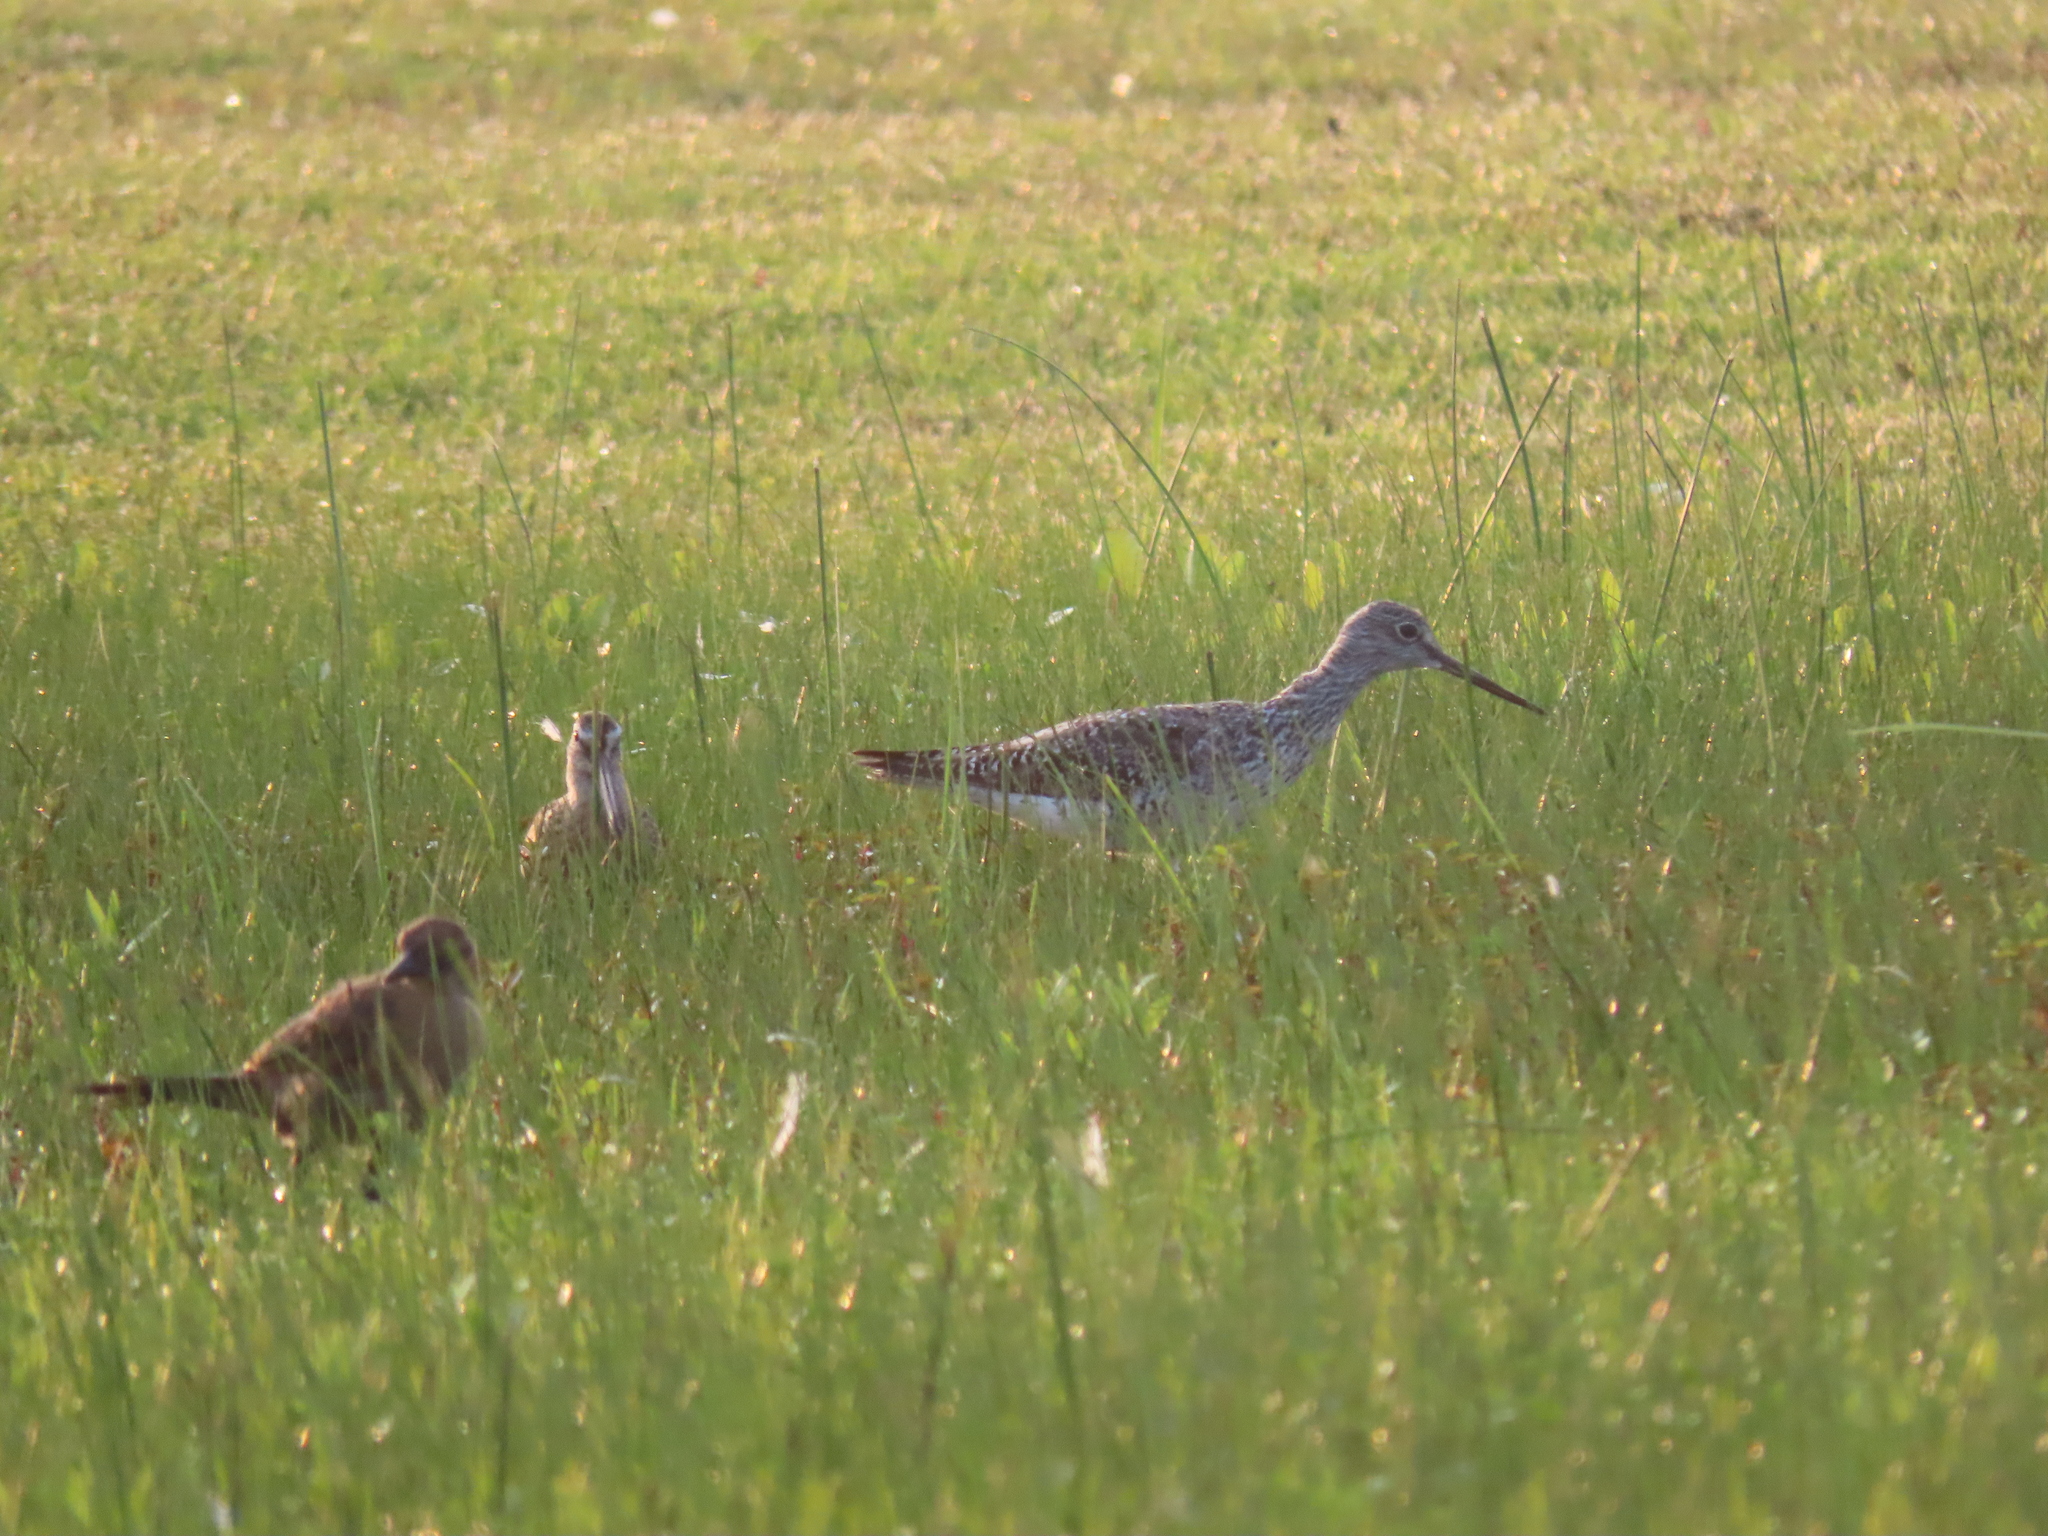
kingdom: Animalia
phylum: Chordata
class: Aves
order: Charadriiformes
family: Scolopacidae
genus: Tringa
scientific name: Tringa melanoleuca
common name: Greater yellowlegs
